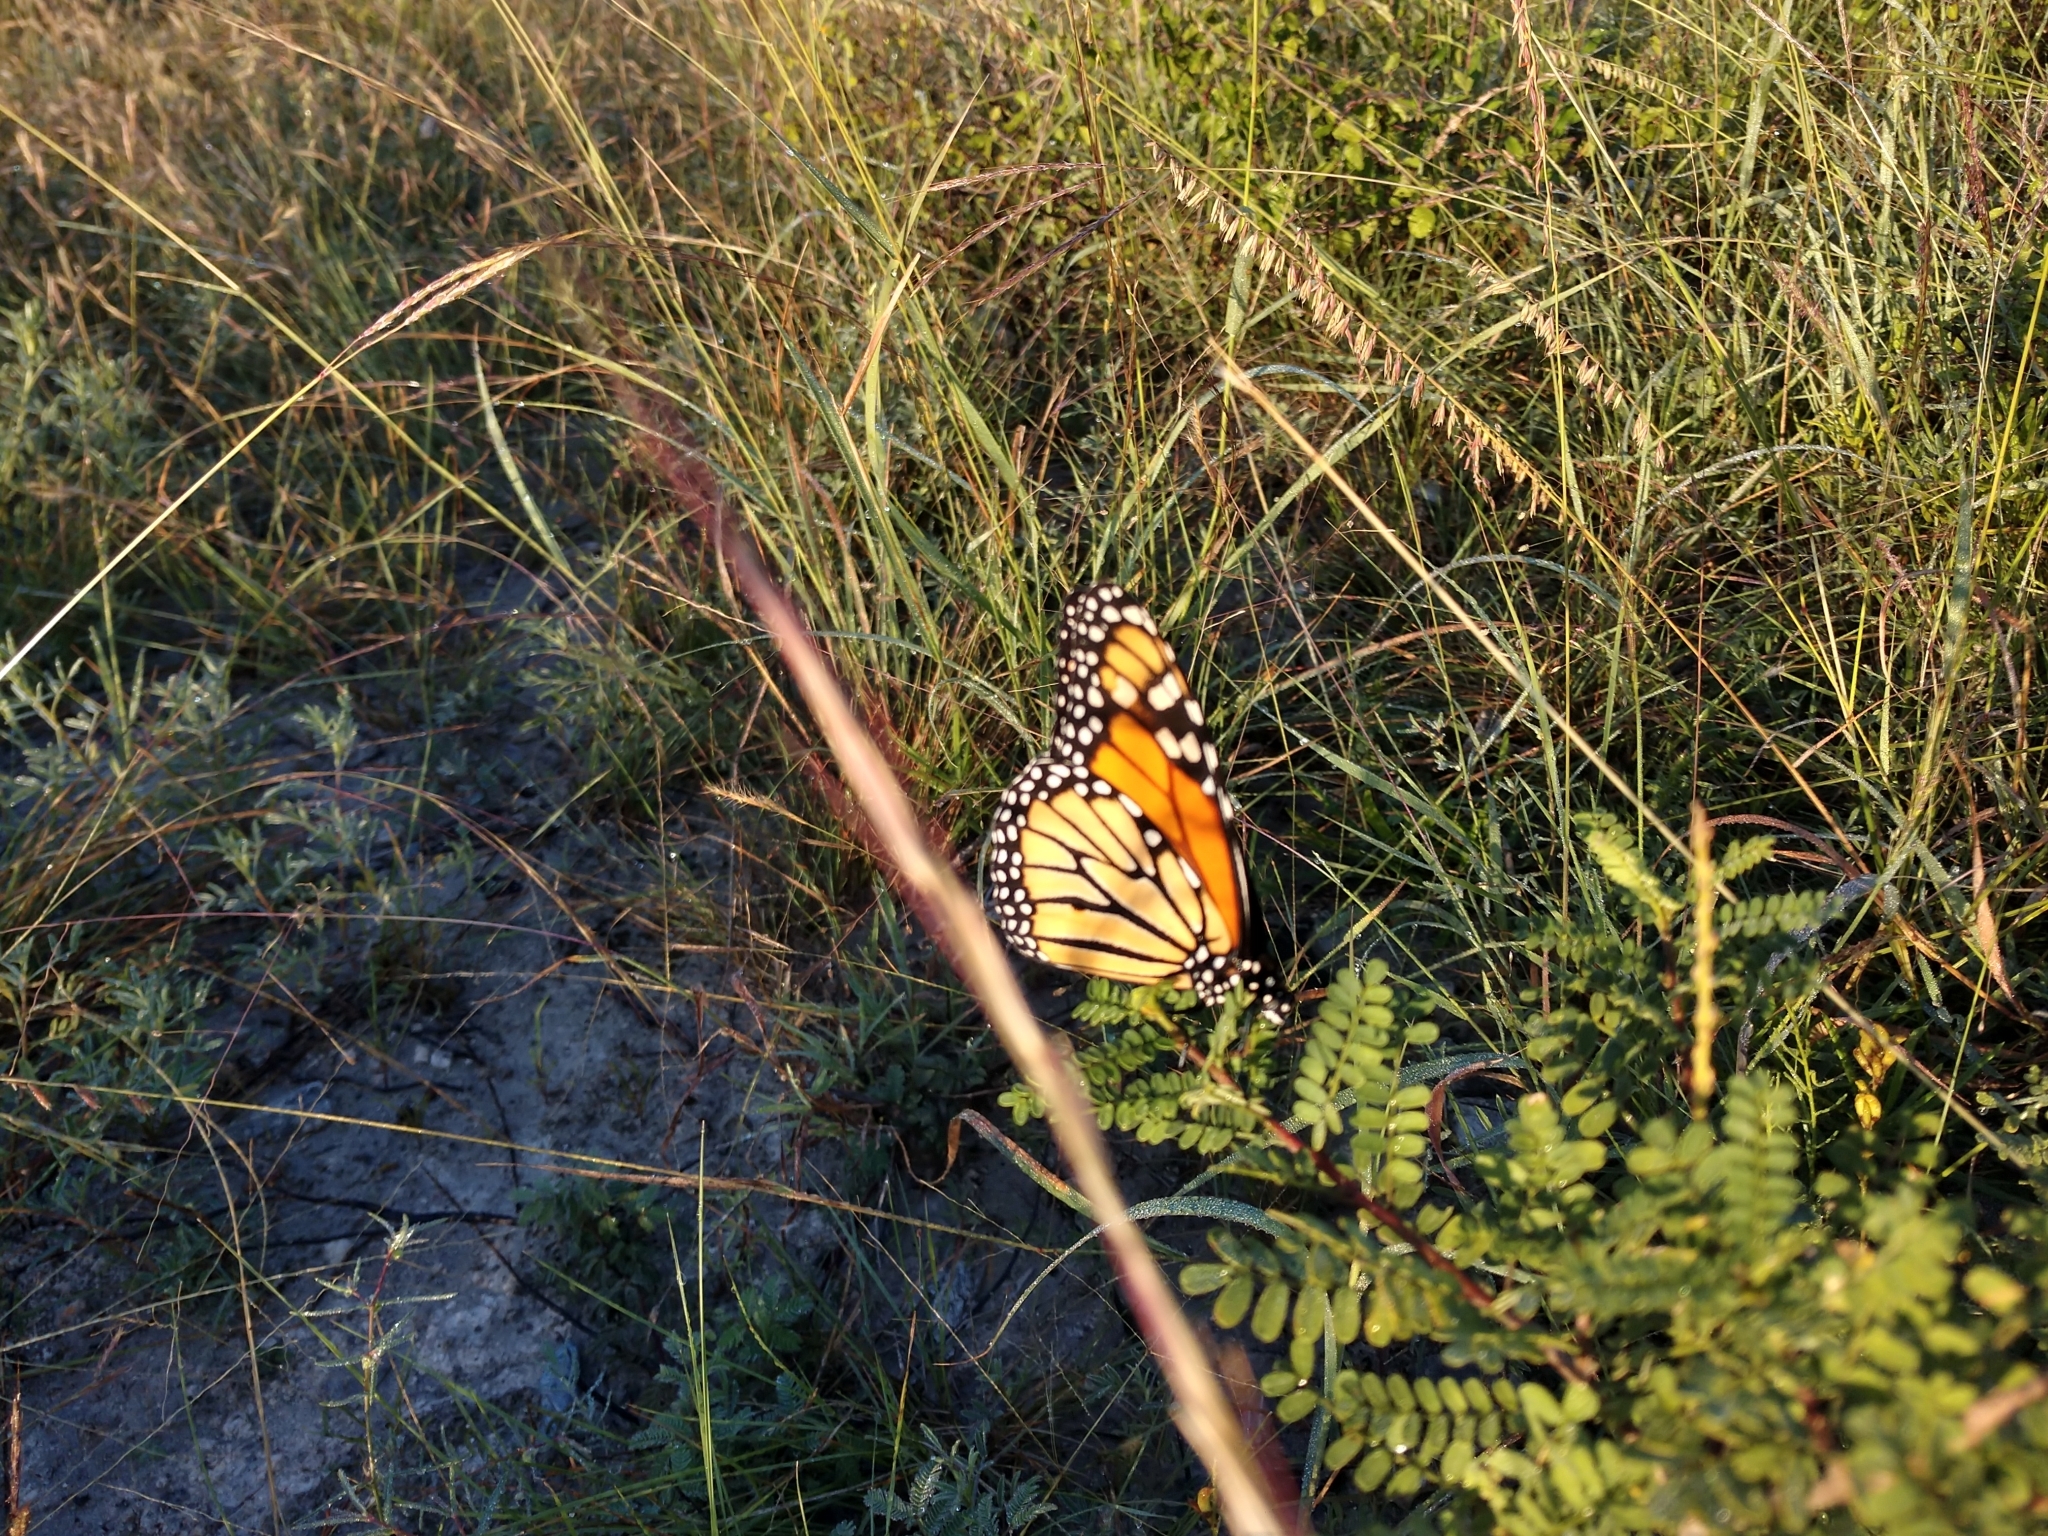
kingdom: Animalia
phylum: Arthropoda
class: Insecta
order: Lepidoptera
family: Nymphalidae
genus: Danaus
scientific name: Danaus plexippus
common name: Monarch
